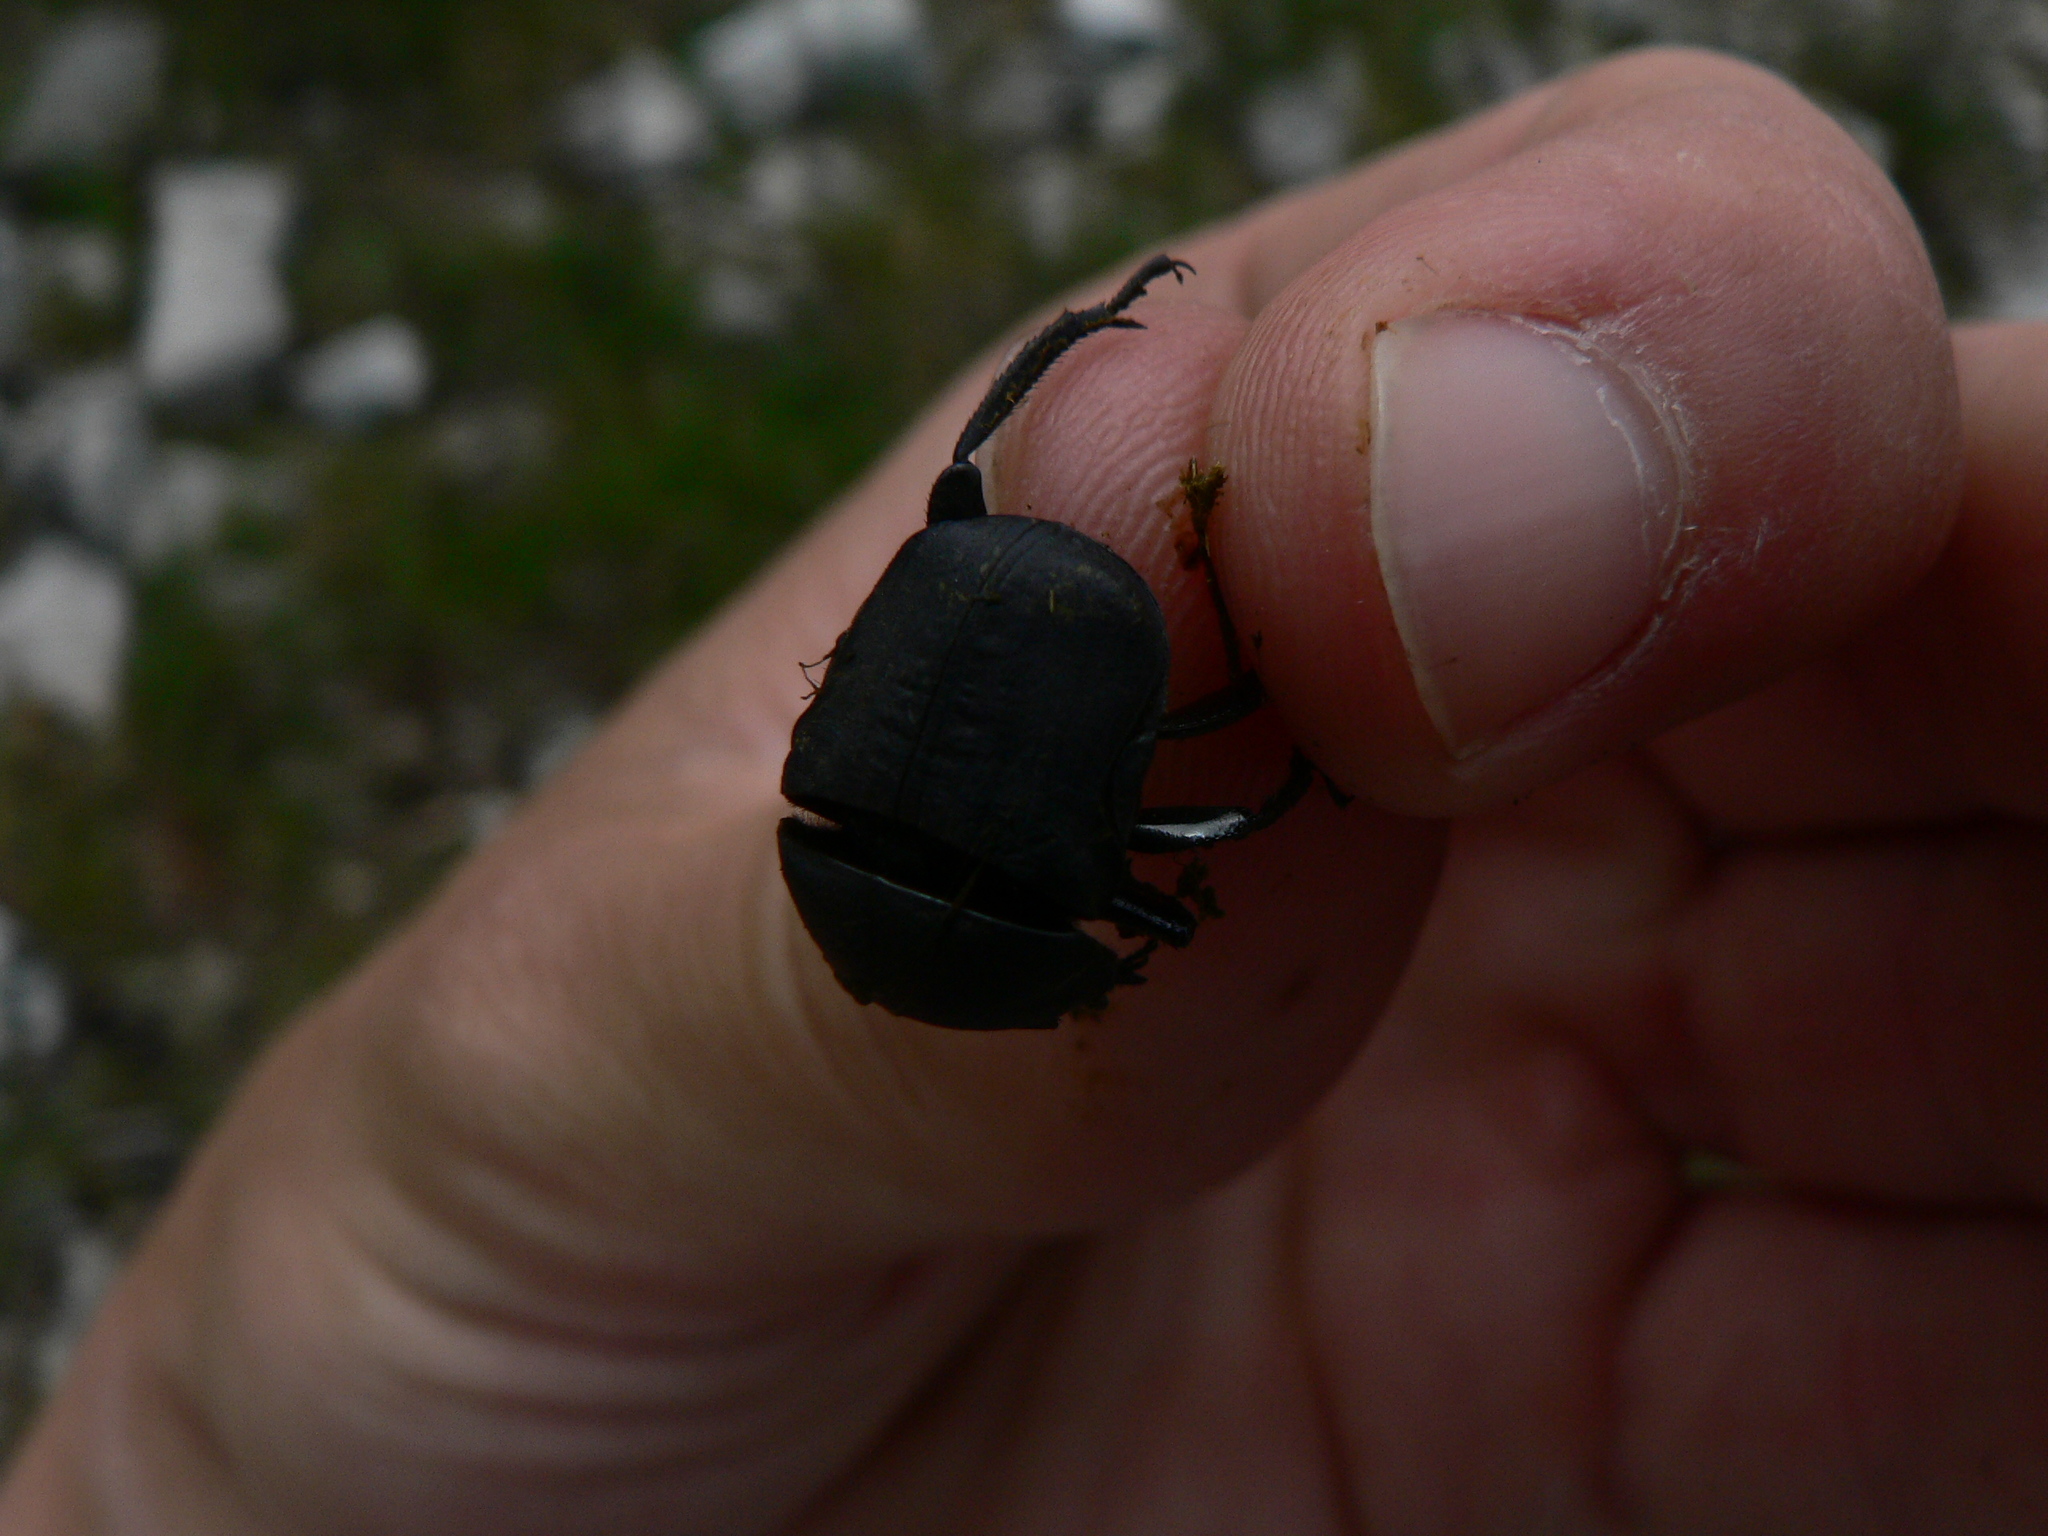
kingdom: Animalia
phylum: Arthropoda
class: Insecta
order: Coleoptera
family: Scarabaeidae
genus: Gymnopleurus
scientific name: Gymnopleurus geoffroyi
